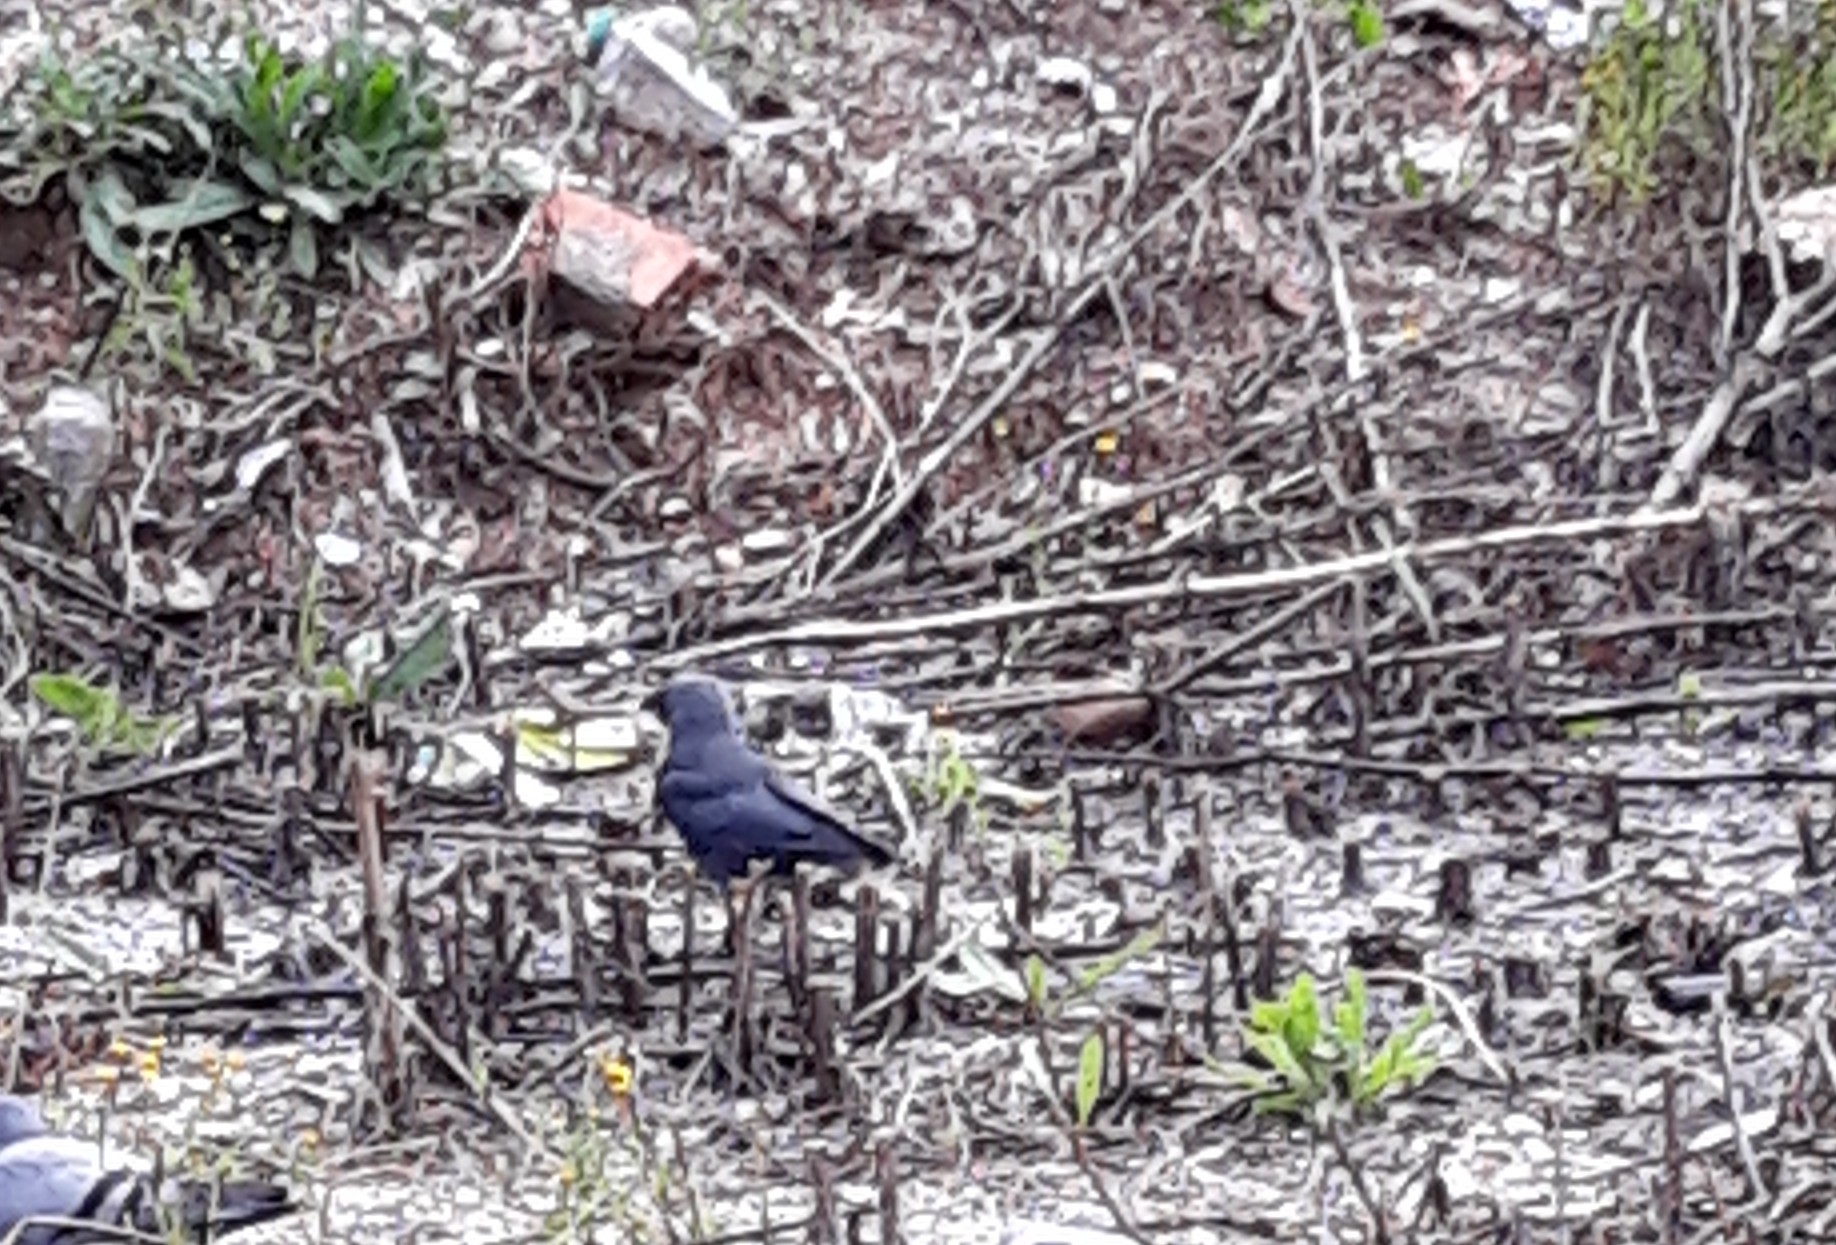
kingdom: Animalia
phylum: Chordata
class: Aves
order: Passeriformes
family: Corvidae
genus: Coloeus
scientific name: Coloeus monedula
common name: Western jackdaw
